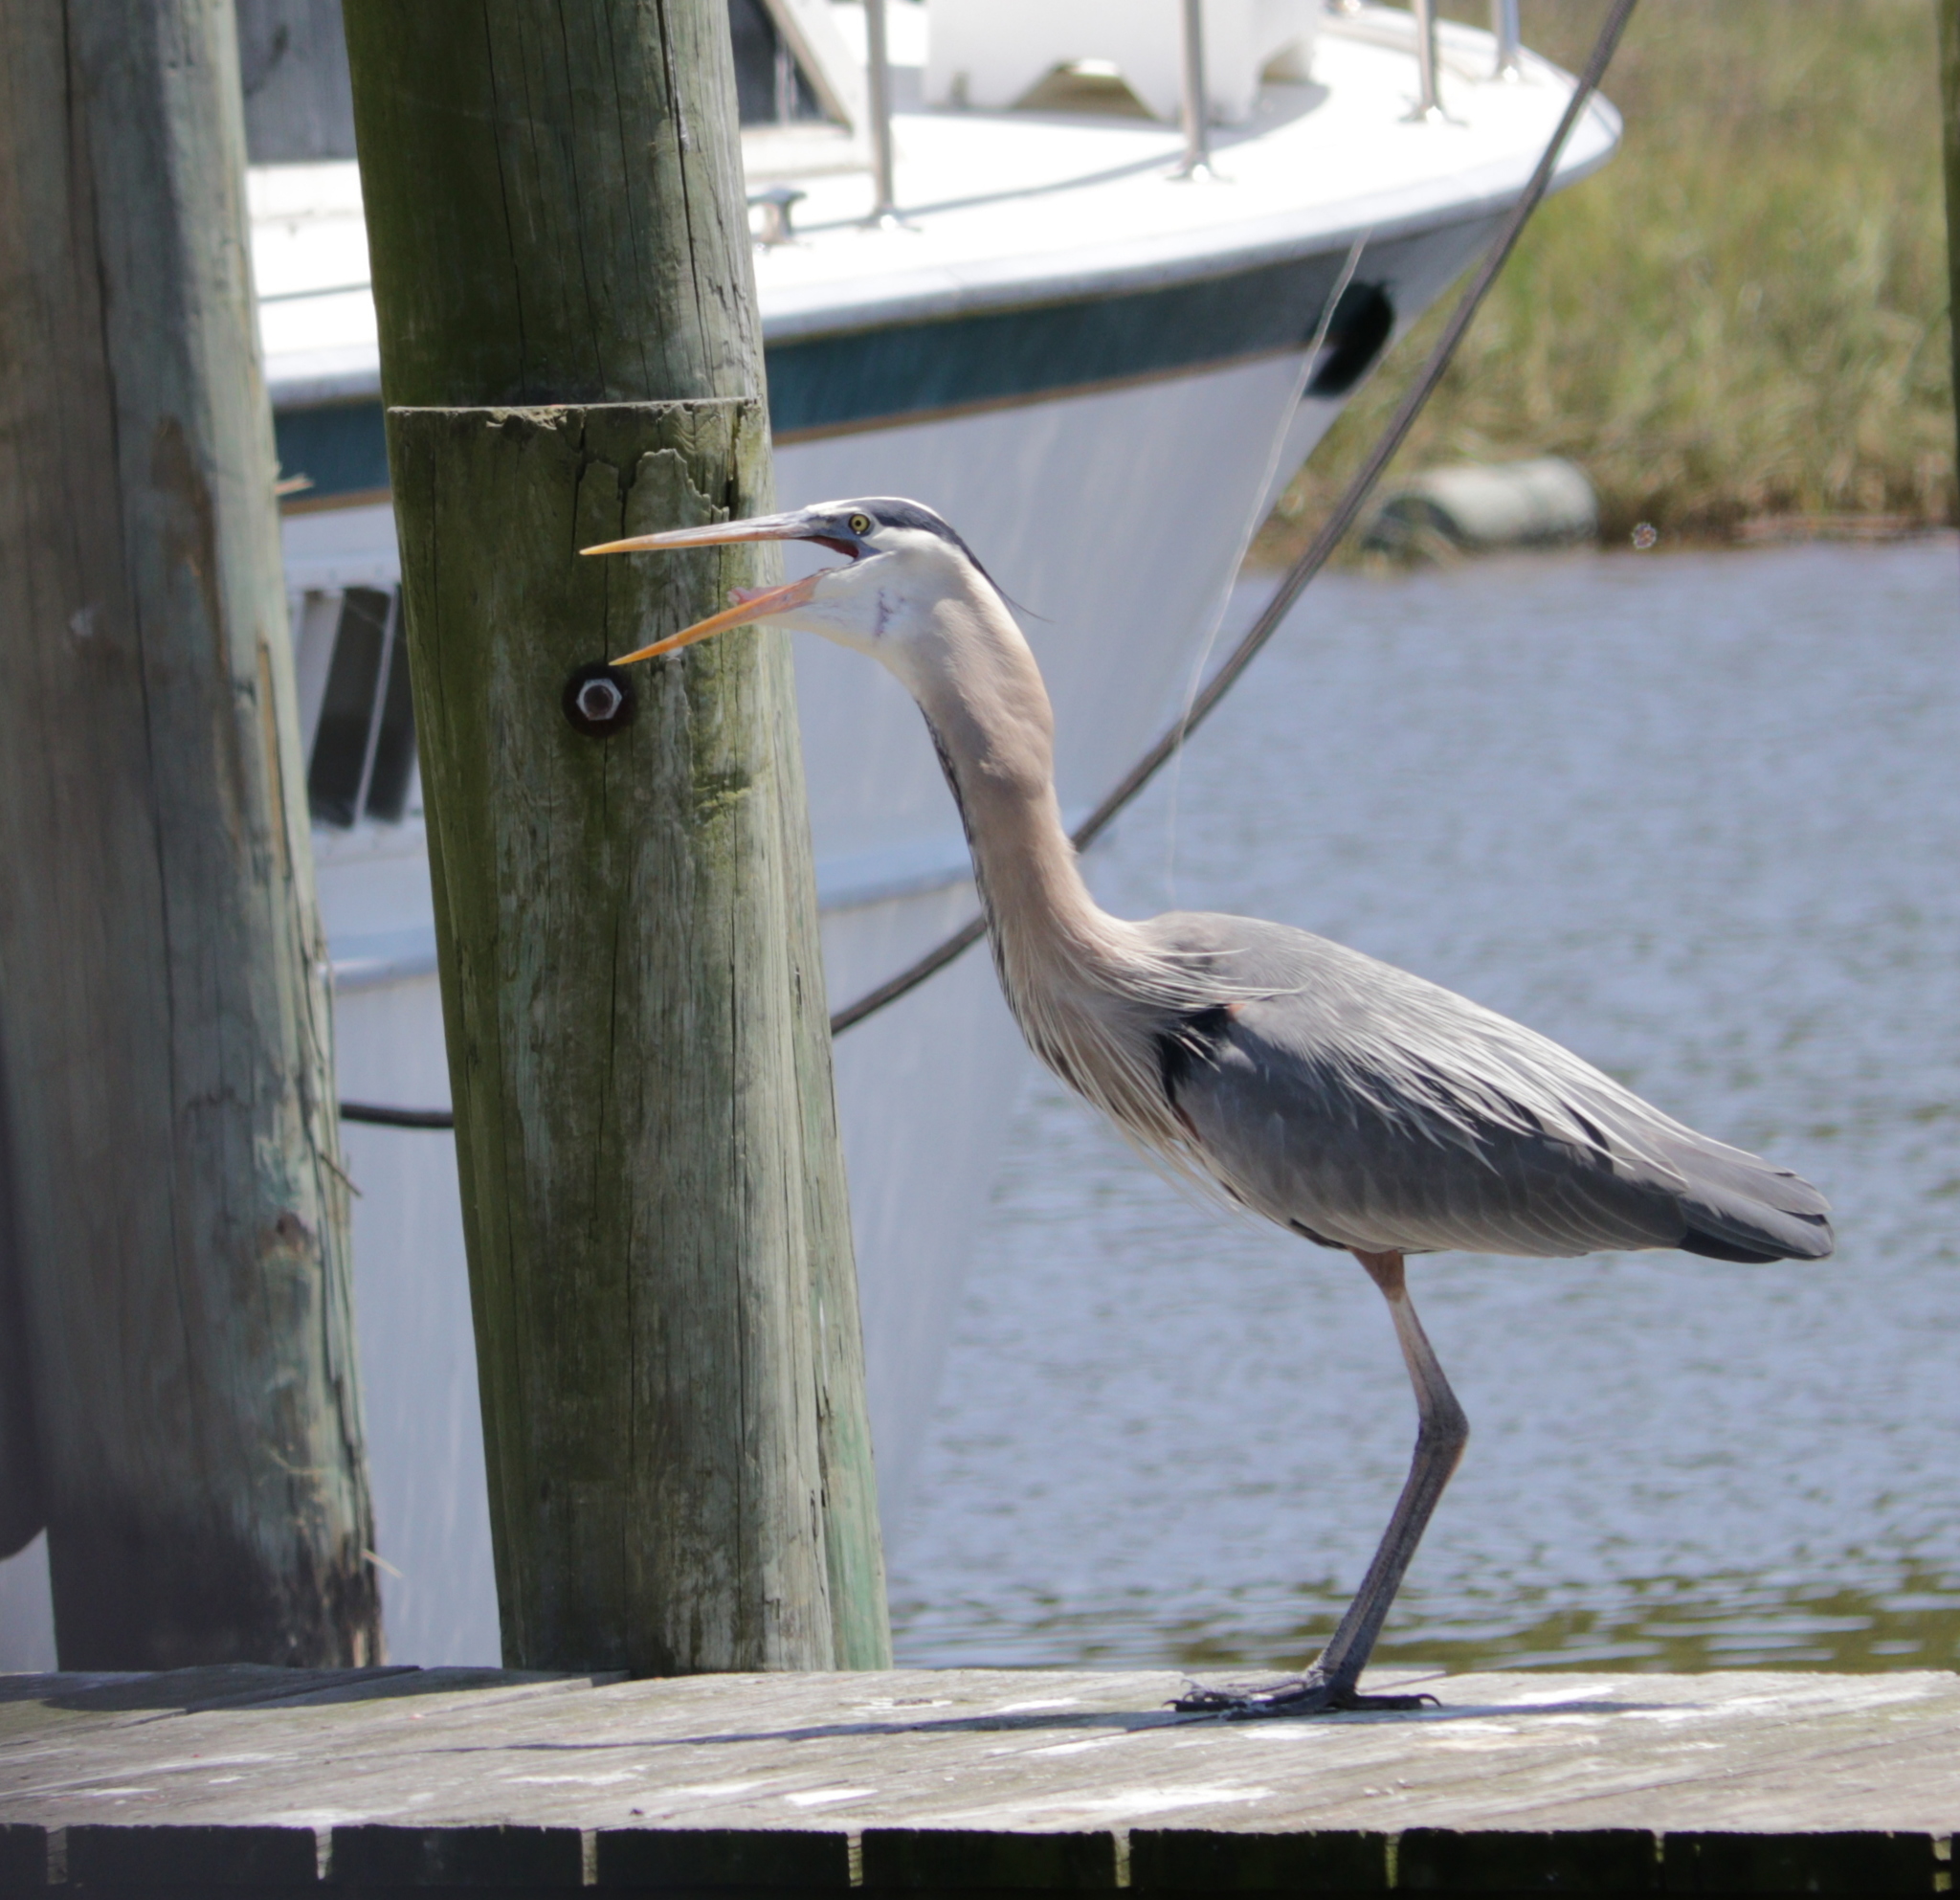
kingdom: Animalia
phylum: Chordata
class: Aves
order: Pelecaniformes
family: Ardeidae
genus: Ardea
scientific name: Ardea herodias
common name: Great blue heron
